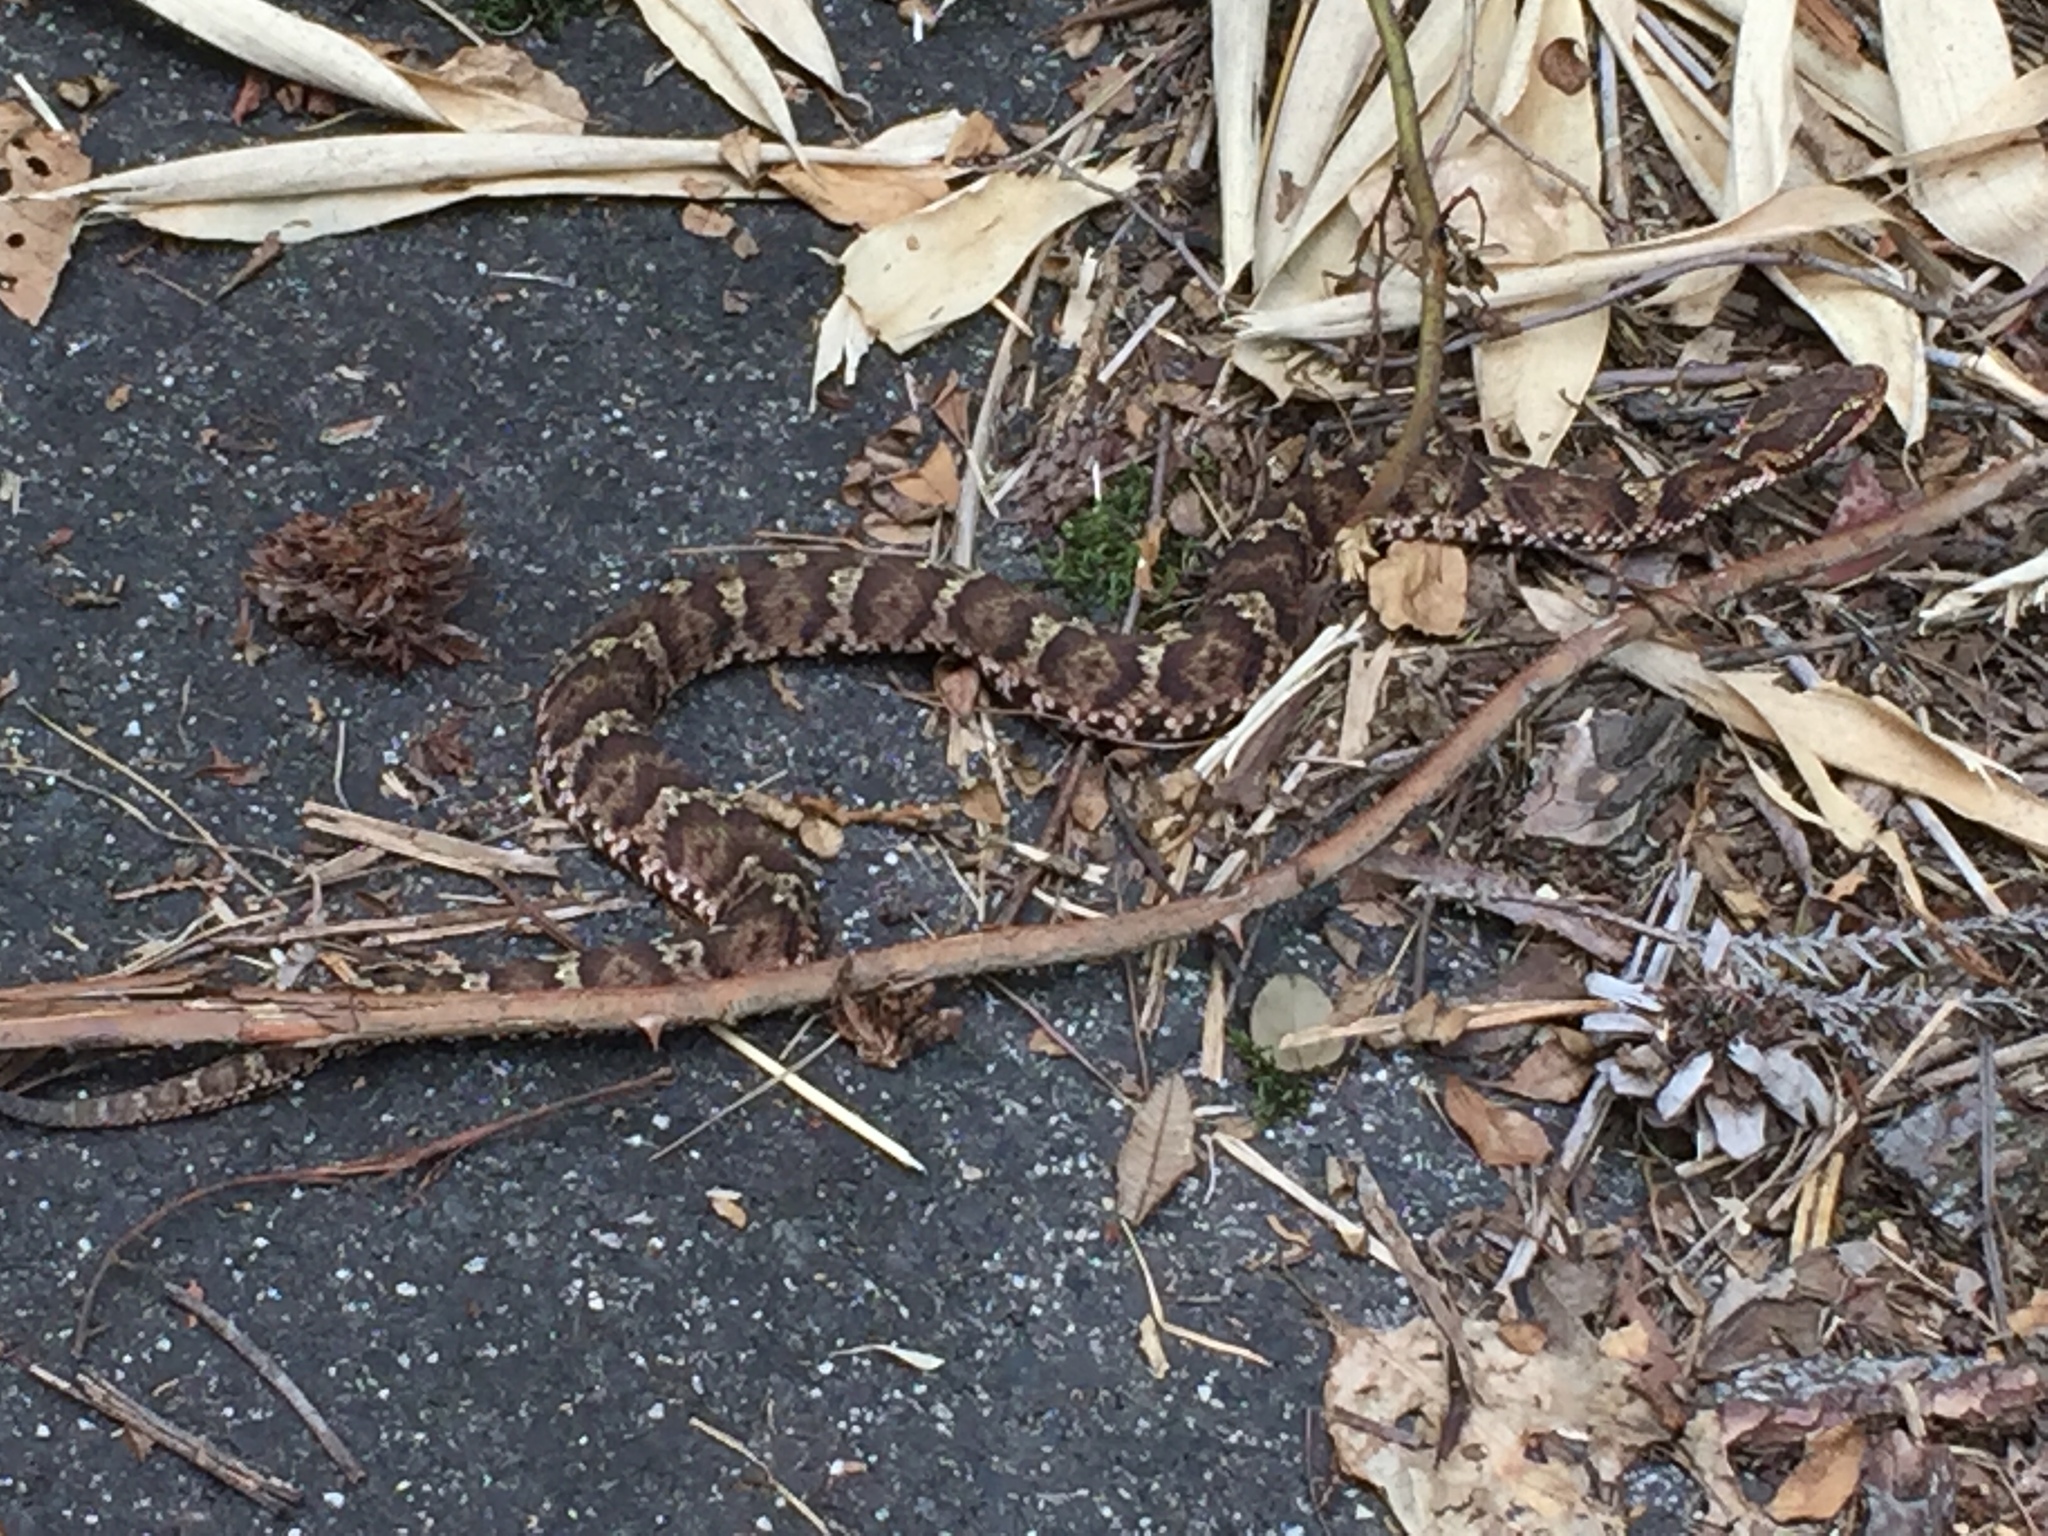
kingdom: Animalia
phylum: Chordata
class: Squamata
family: Viperidae
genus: Gloydius
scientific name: Gloydius blomhoffii
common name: Mamushi
